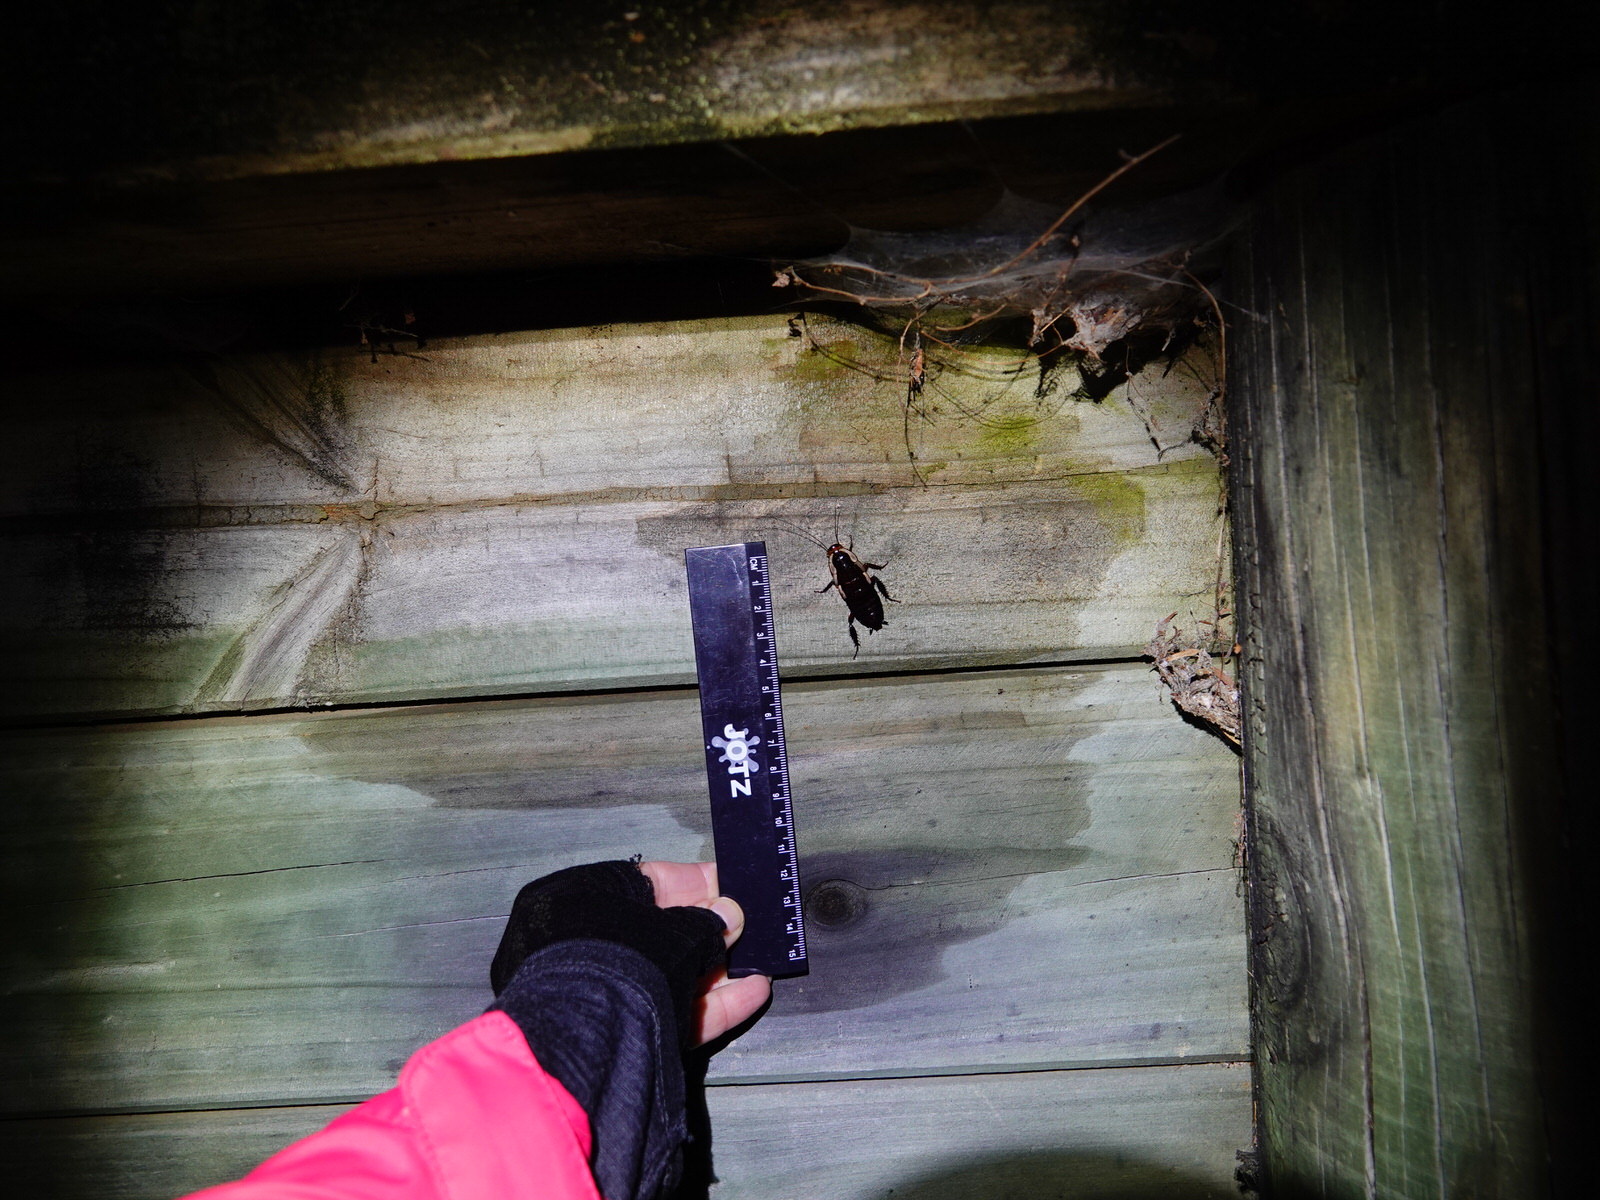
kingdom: Animalia
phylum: Arthropoda
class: Insecta
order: Blattodea
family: Blattidae
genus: Drymaplaneta
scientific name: Drymaplaneta semivitta
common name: Gisborne cockroach
